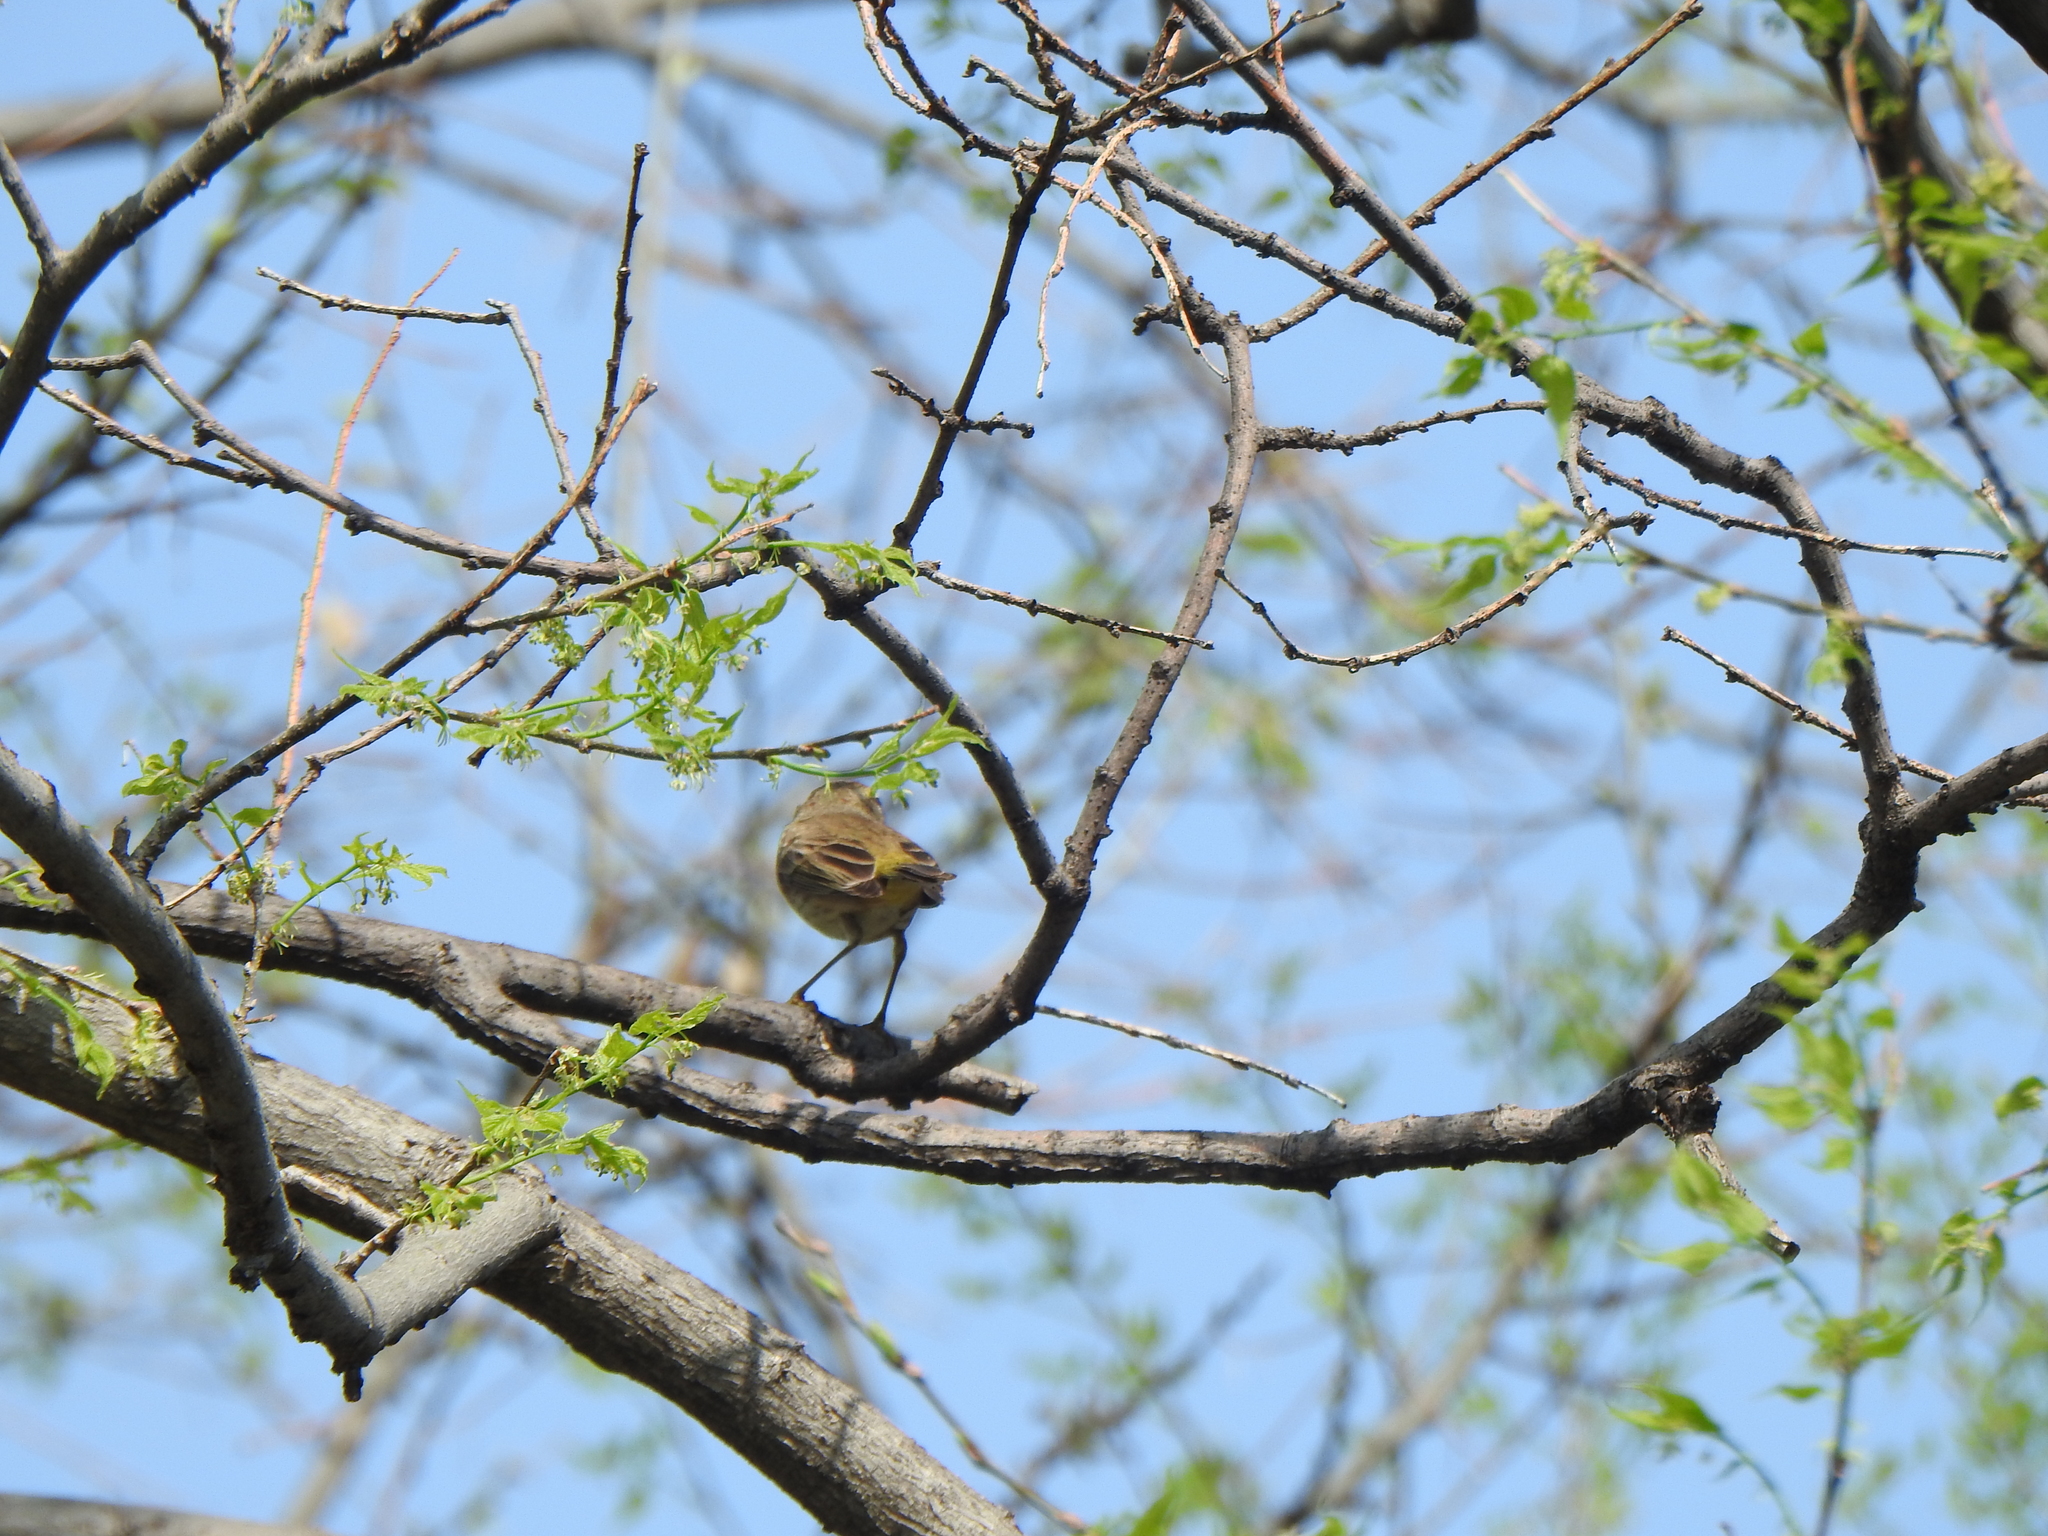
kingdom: Animalia
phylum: Chordata
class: Aves
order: Passeriformes
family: Parulidae
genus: Setophaga
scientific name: Setophaga palmarum
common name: Palm warbler
